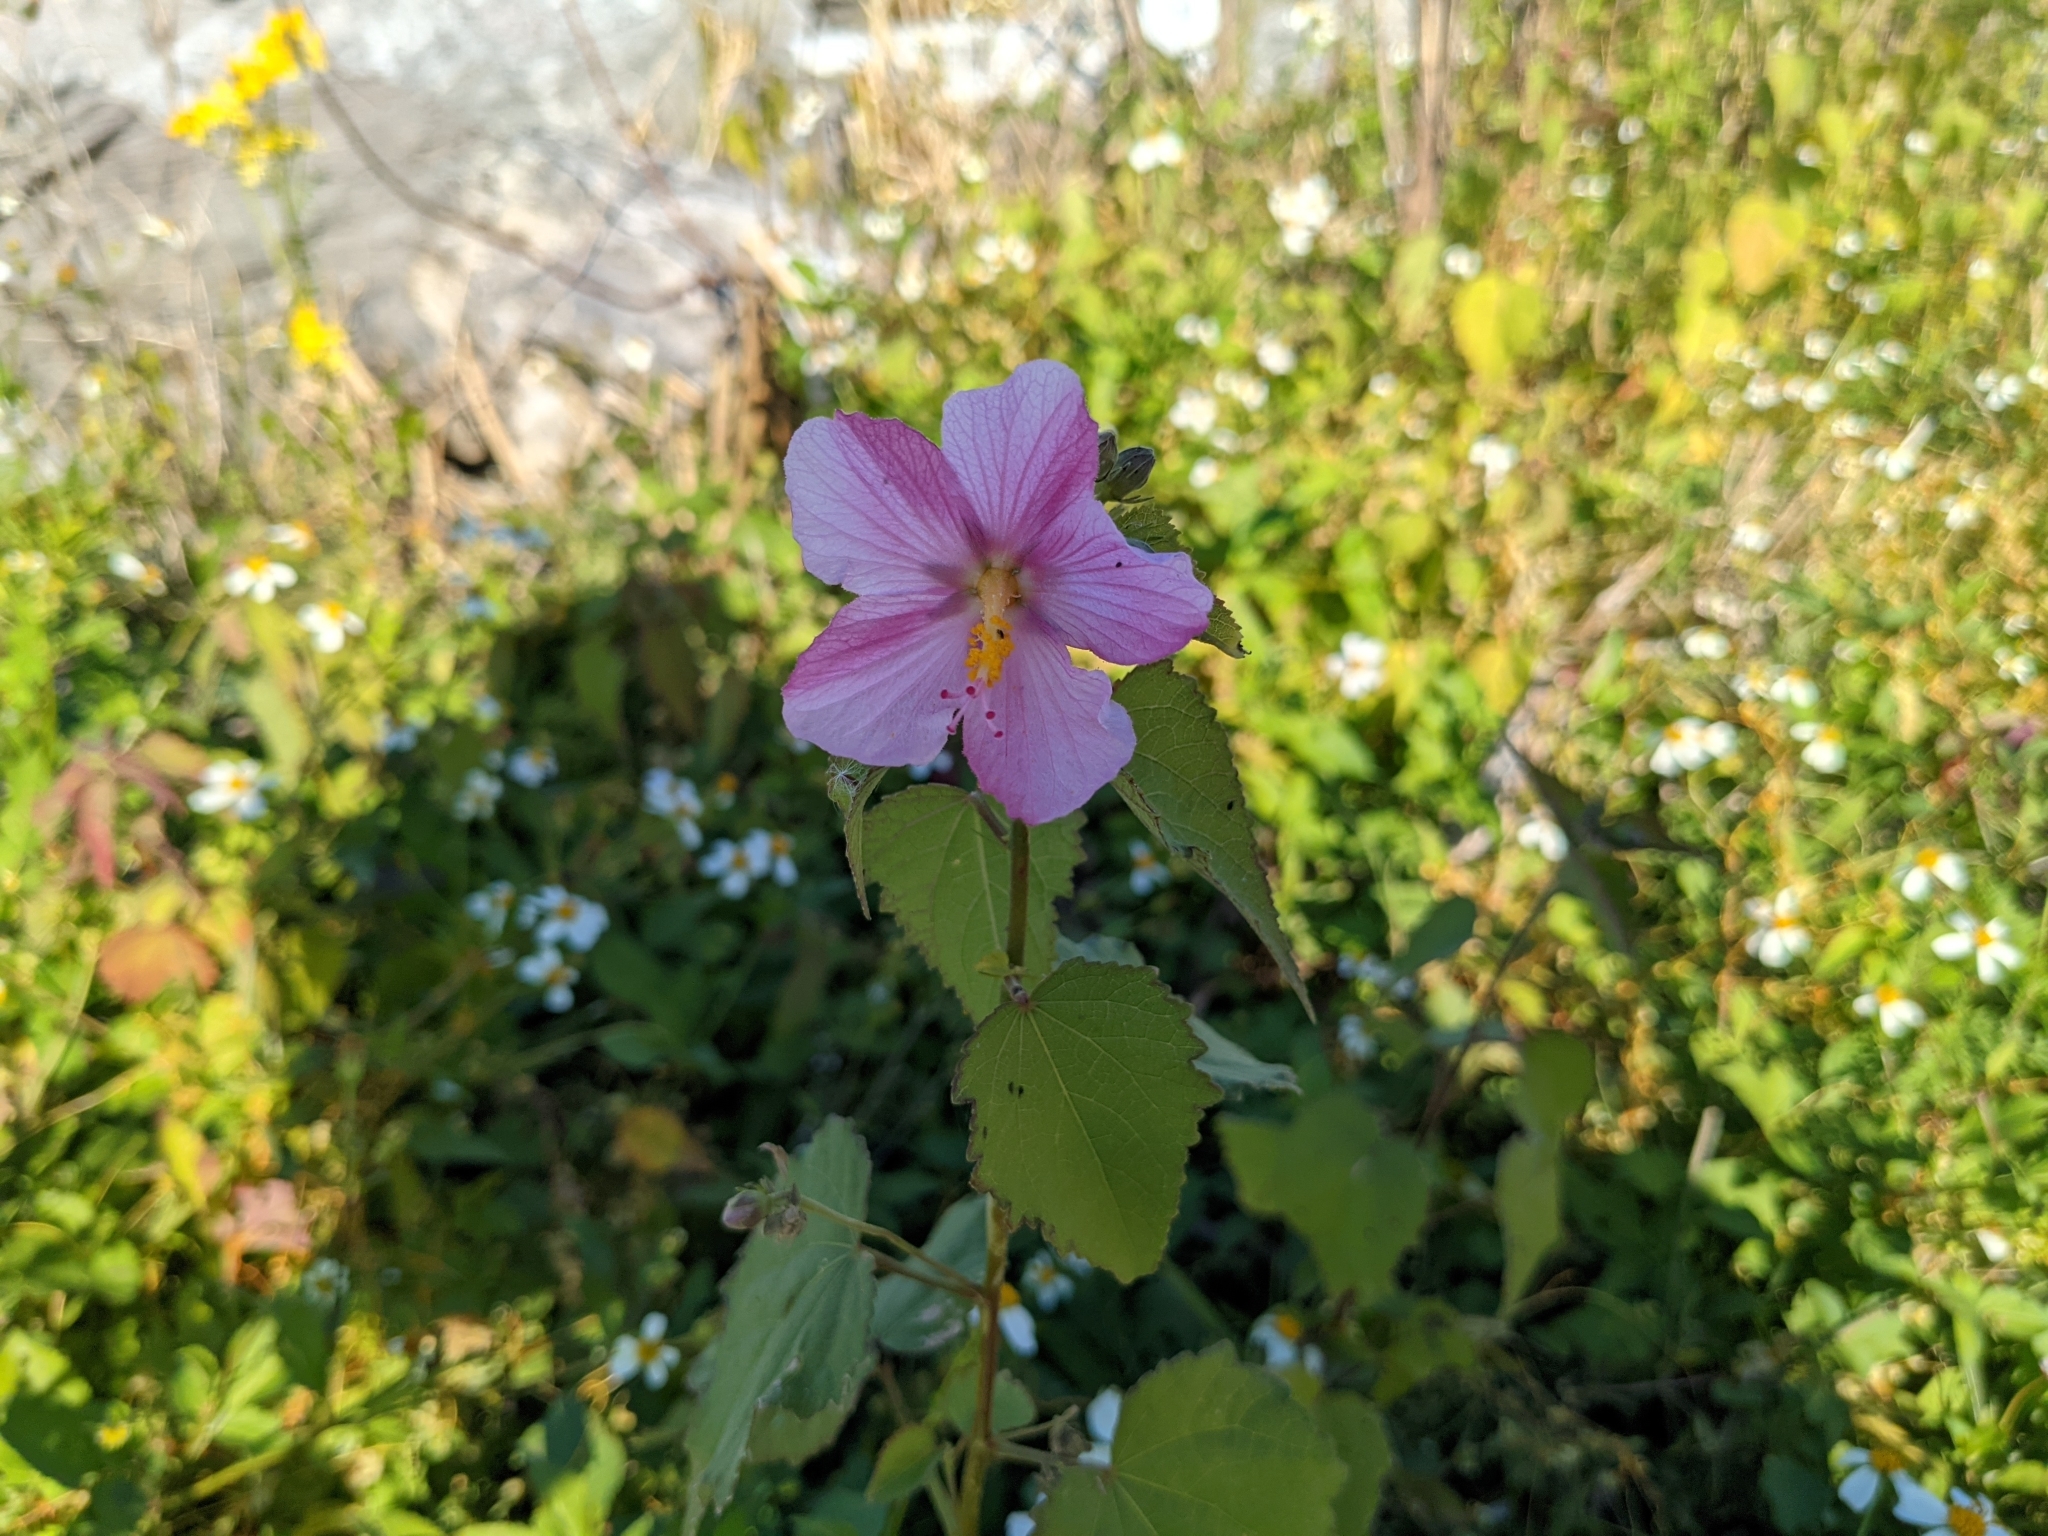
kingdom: Plantae
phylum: Tracheophyta
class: Magnoliopsida
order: Malvales
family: Malvaceae
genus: Kosteletzkya
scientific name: Kosteletzkya pentacarpos
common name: Virginia saltmarsh mallow
